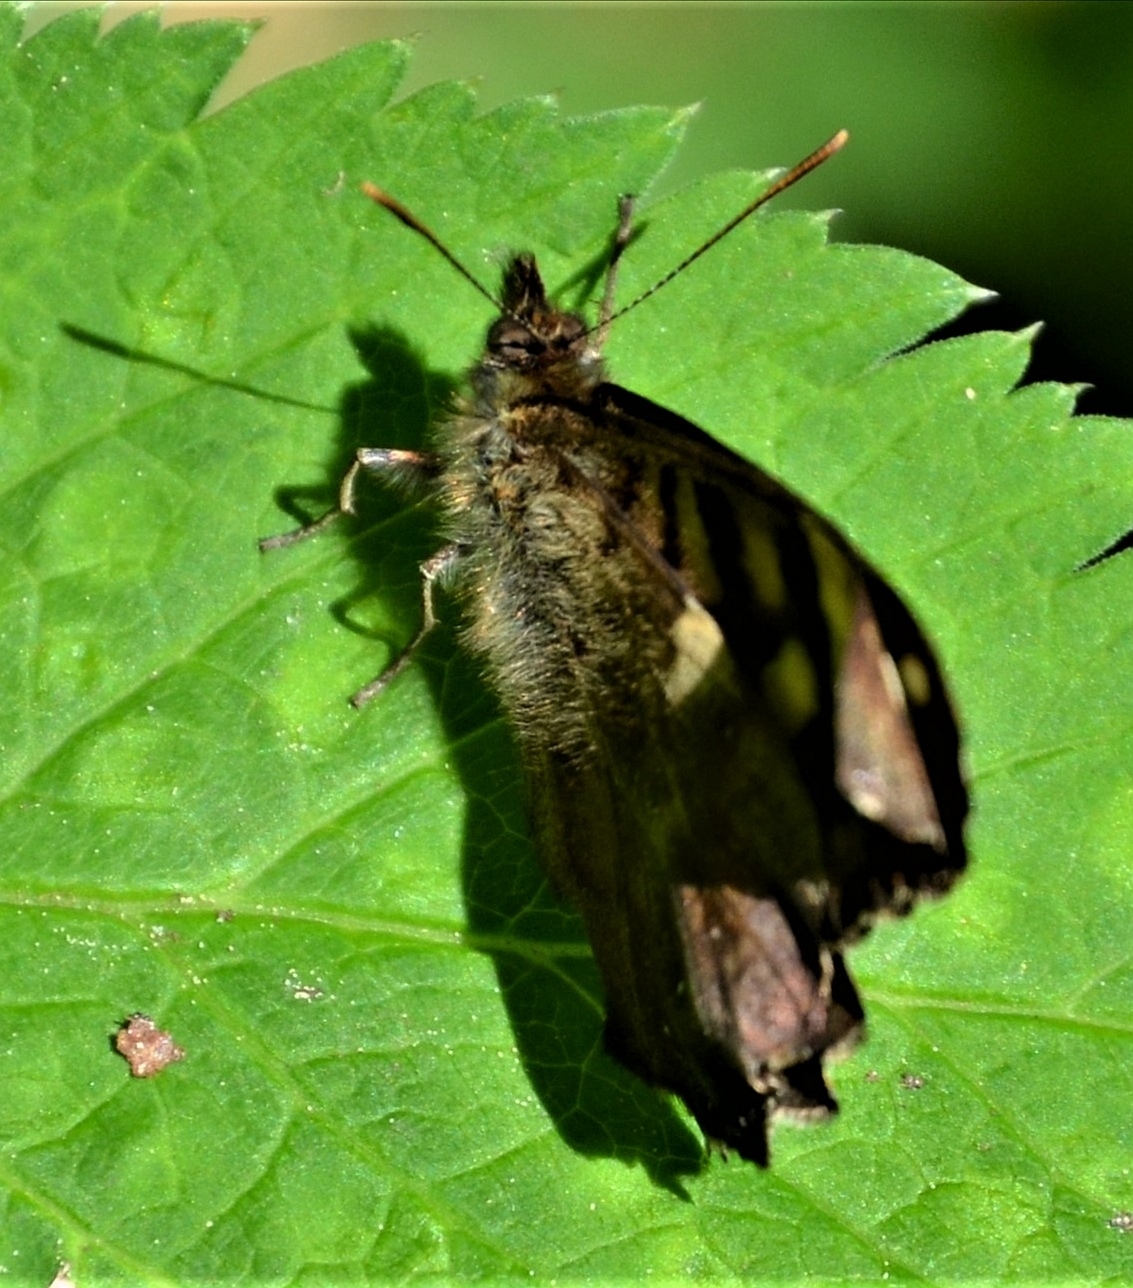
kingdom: Animalia
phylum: Arthropoda
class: Insecta
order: Lepidoptera
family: Nymphalidae
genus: Pararge
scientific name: Pararge aegeria
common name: Speckled wood
